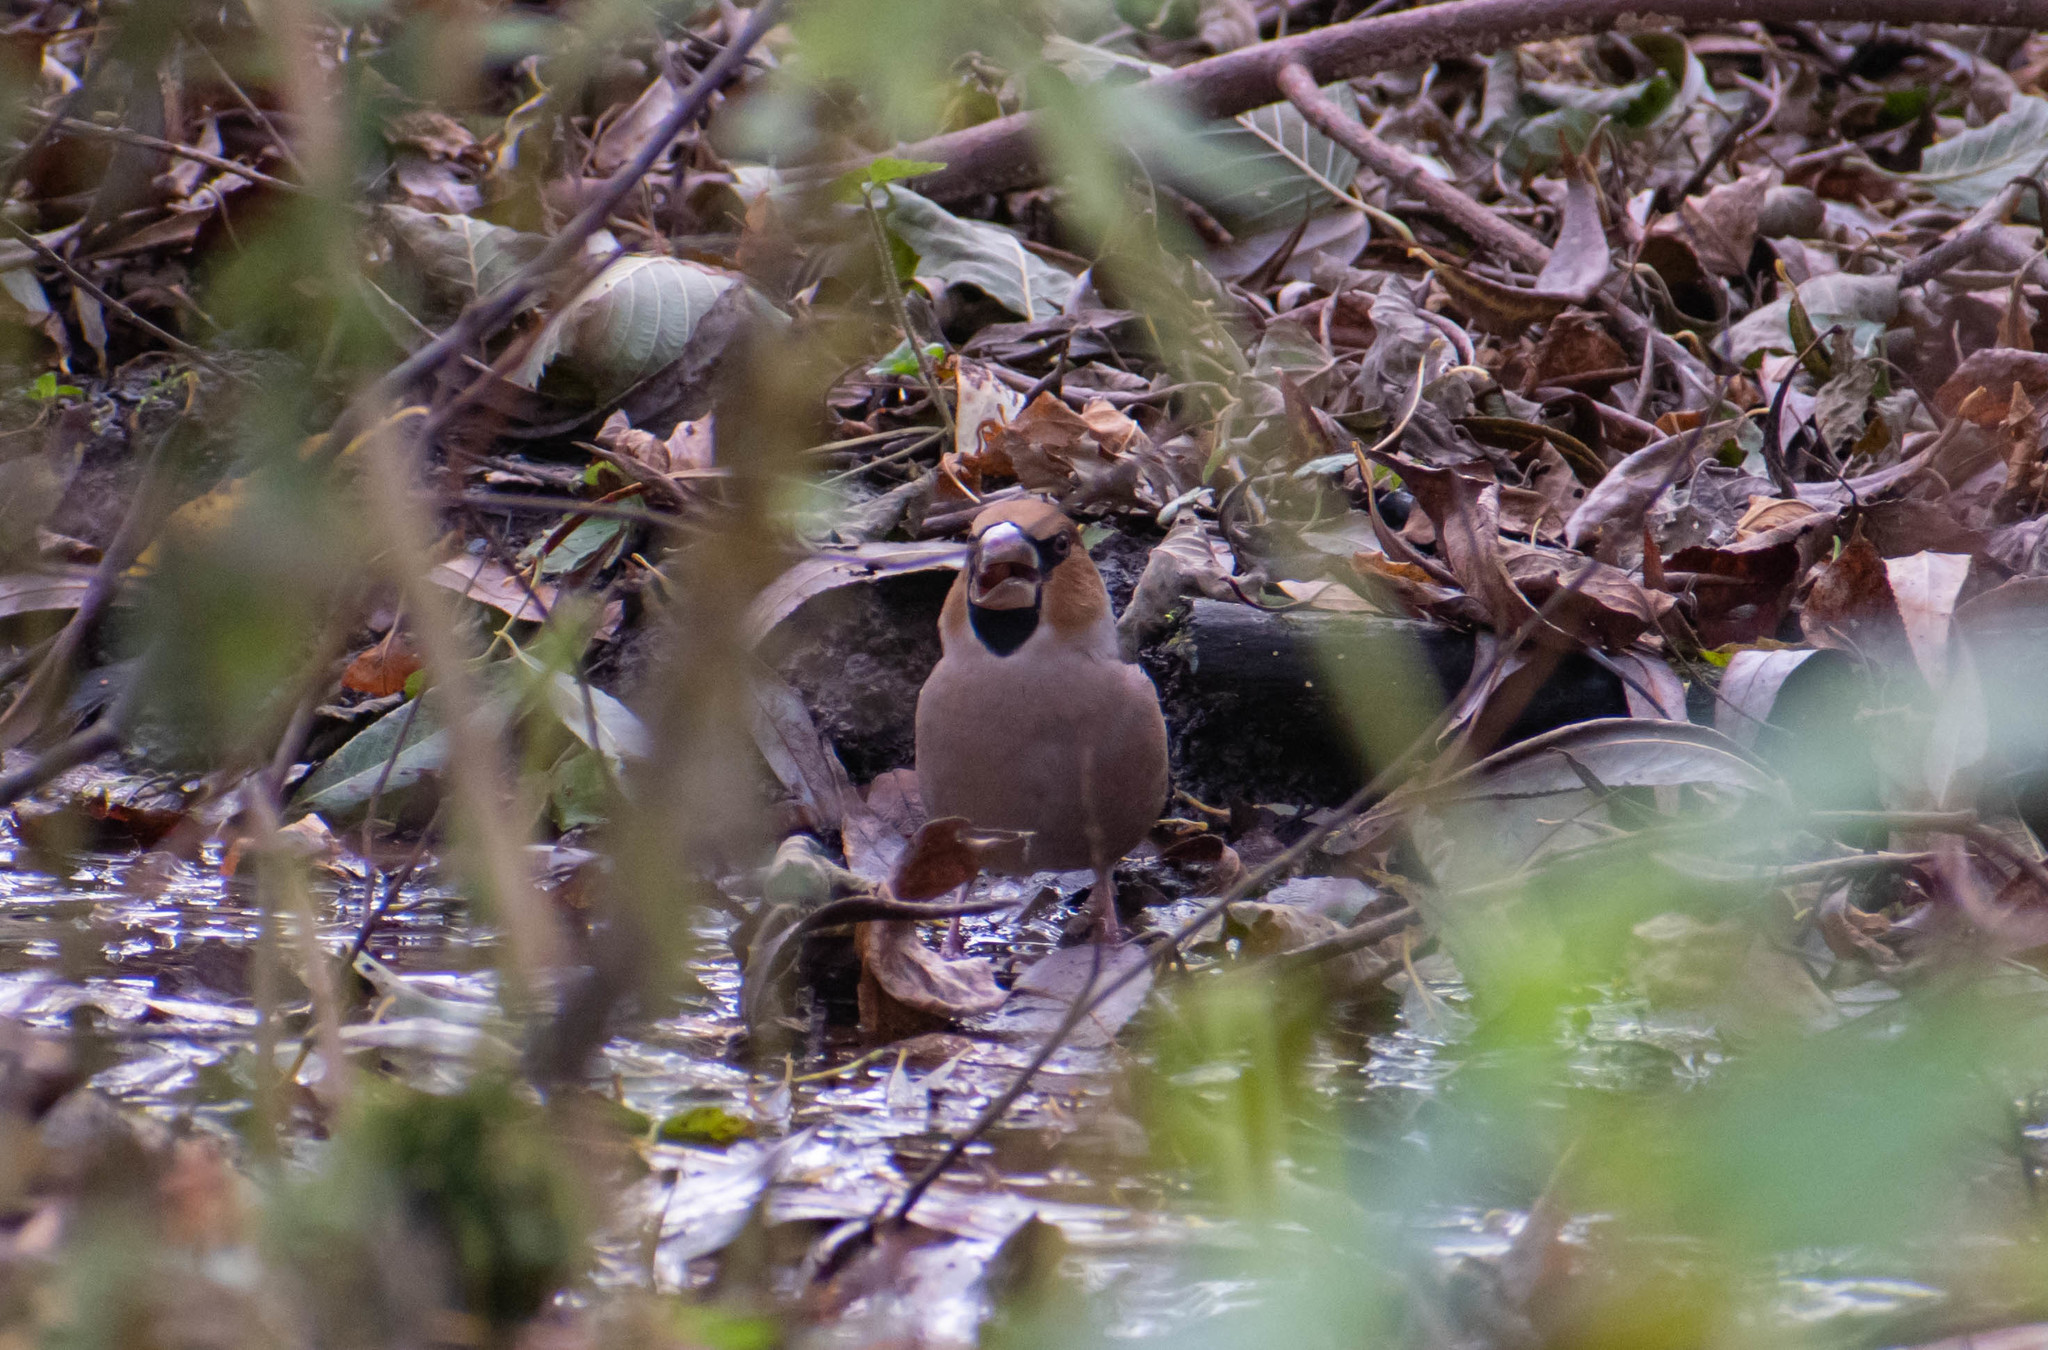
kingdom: Animalia
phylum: Chordata
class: Aves
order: Passeriformes
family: Fringillidae
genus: Coccothraustes
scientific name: Coccothraustes coccothraustes
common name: Hawfinch
